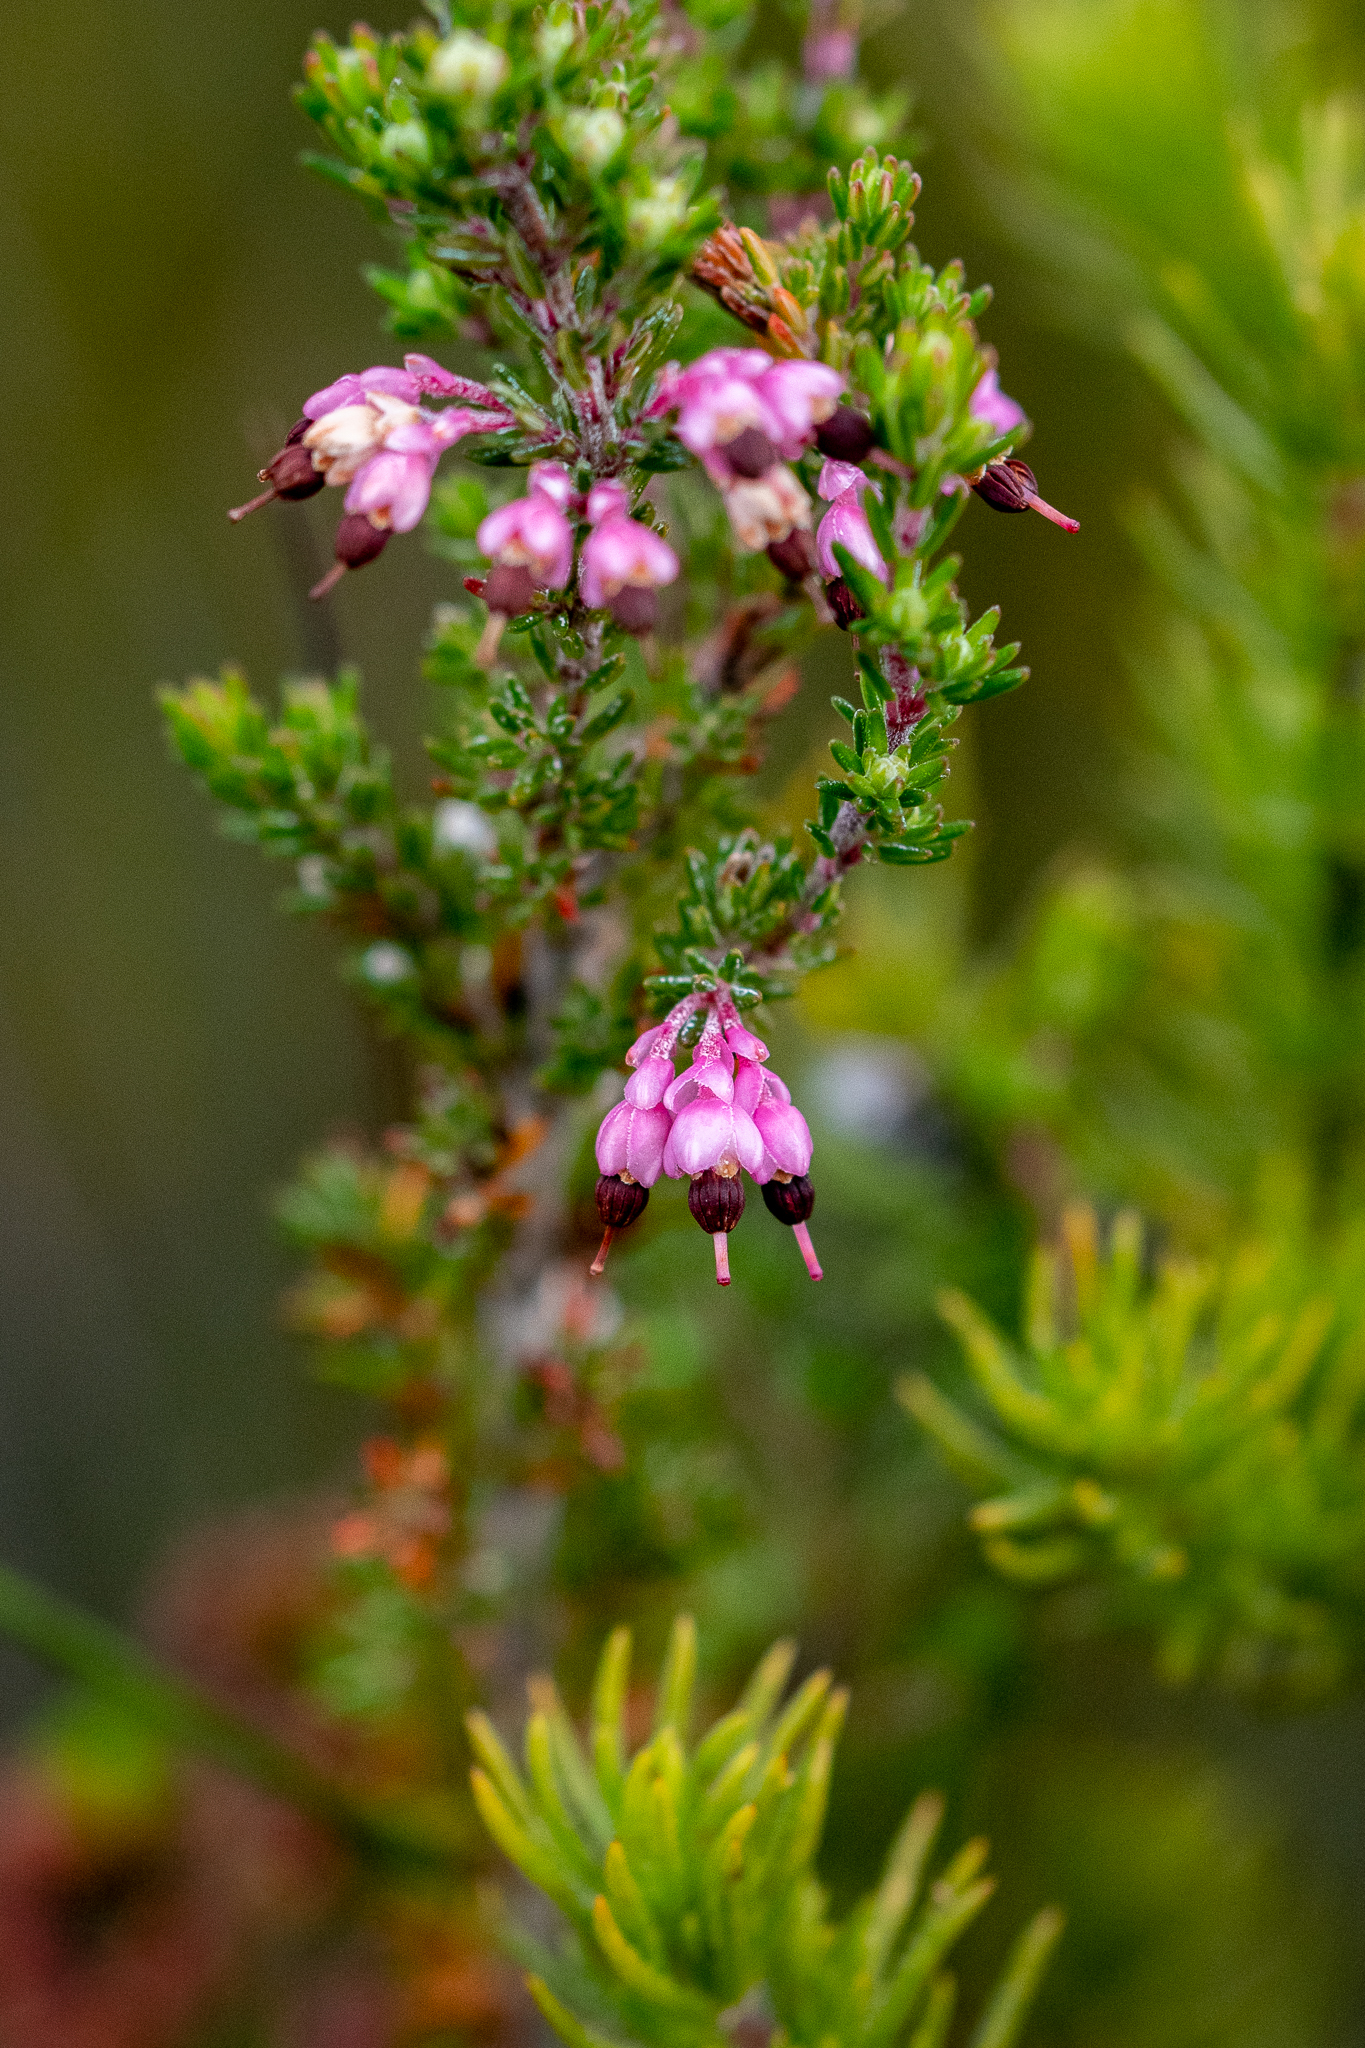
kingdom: Plantae
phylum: Tracheophyta
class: Magnoliopsida
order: Ericales
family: Ericaceae
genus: Erica
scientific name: Erica placentiflora
